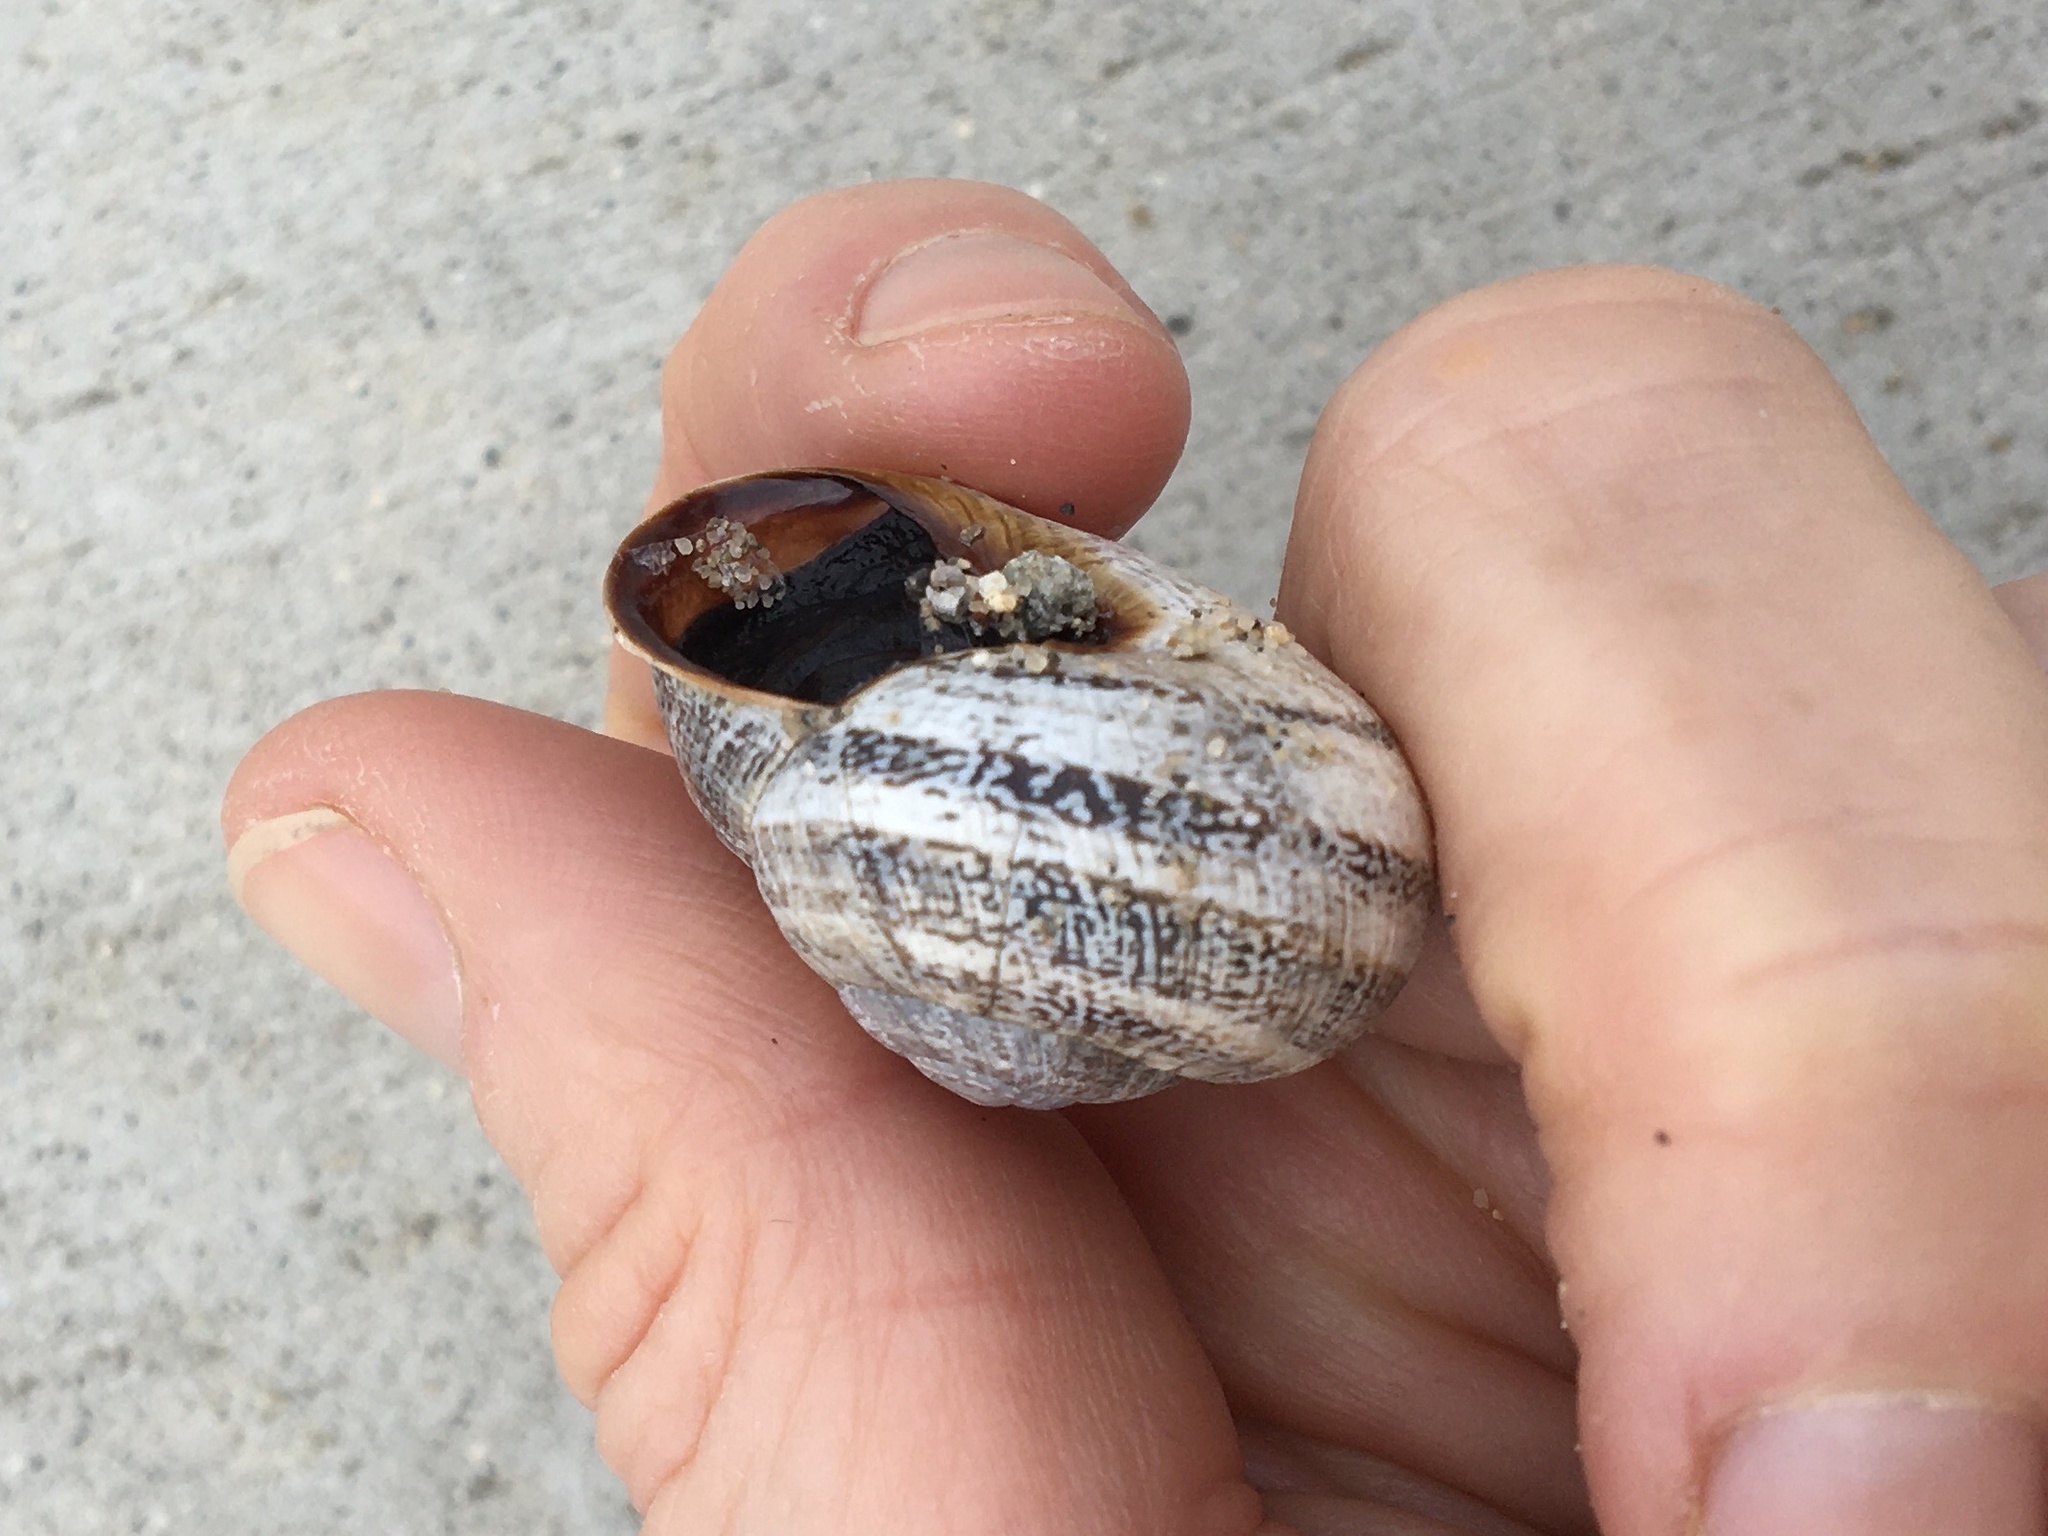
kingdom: Animalia
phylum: Mollusca
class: Gastropoda
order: Stylommatophora
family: Helicidae
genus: Otala
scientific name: Otala lactea
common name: Milk snail
